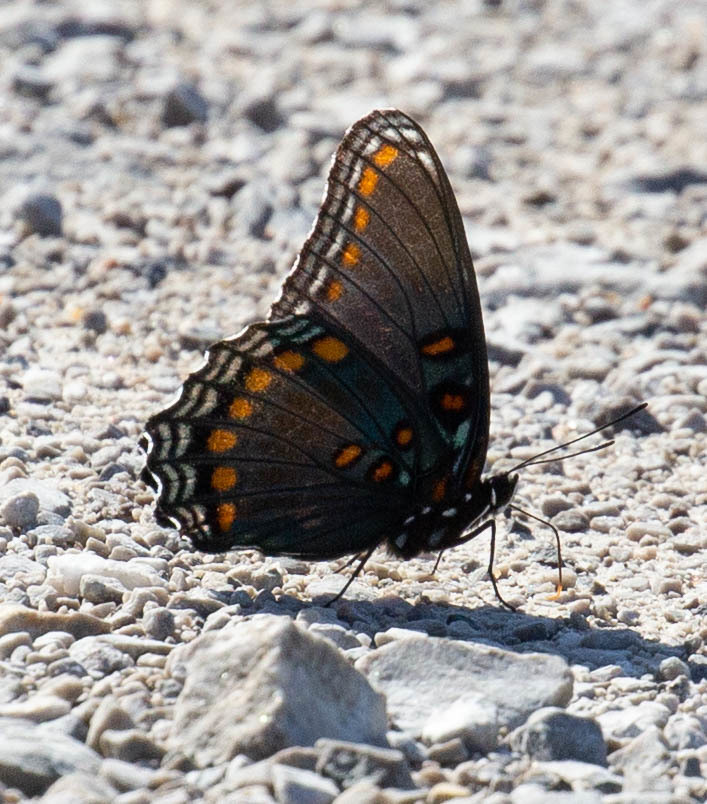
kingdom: Animalia
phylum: Arthropoda
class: Insecta
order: Lepidoptera
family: Nymphalidae
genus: Limenitis
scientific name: Limenitis astyanax
